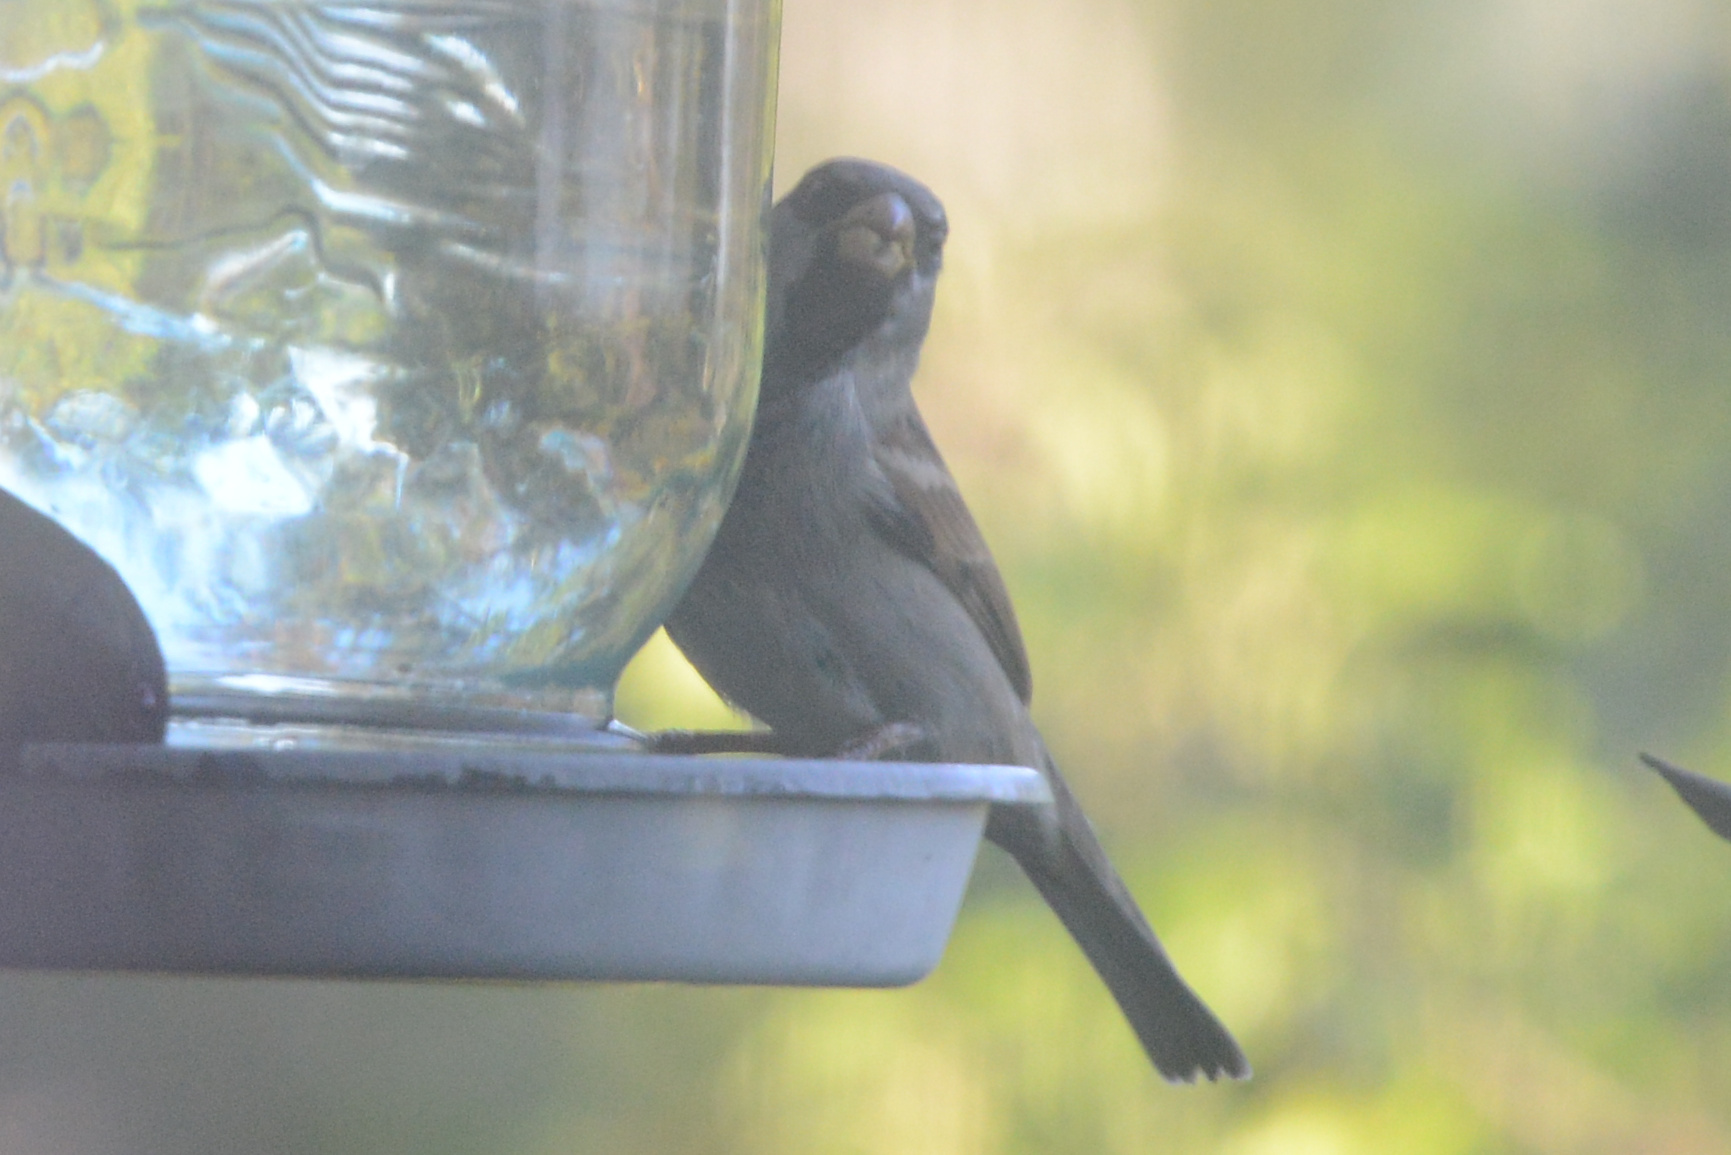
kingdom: Animalia
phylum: Chordata
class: Aves
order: Passeriformes
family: Passeridae
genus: Passer
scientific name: Passer domesticus
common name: House sparrow
